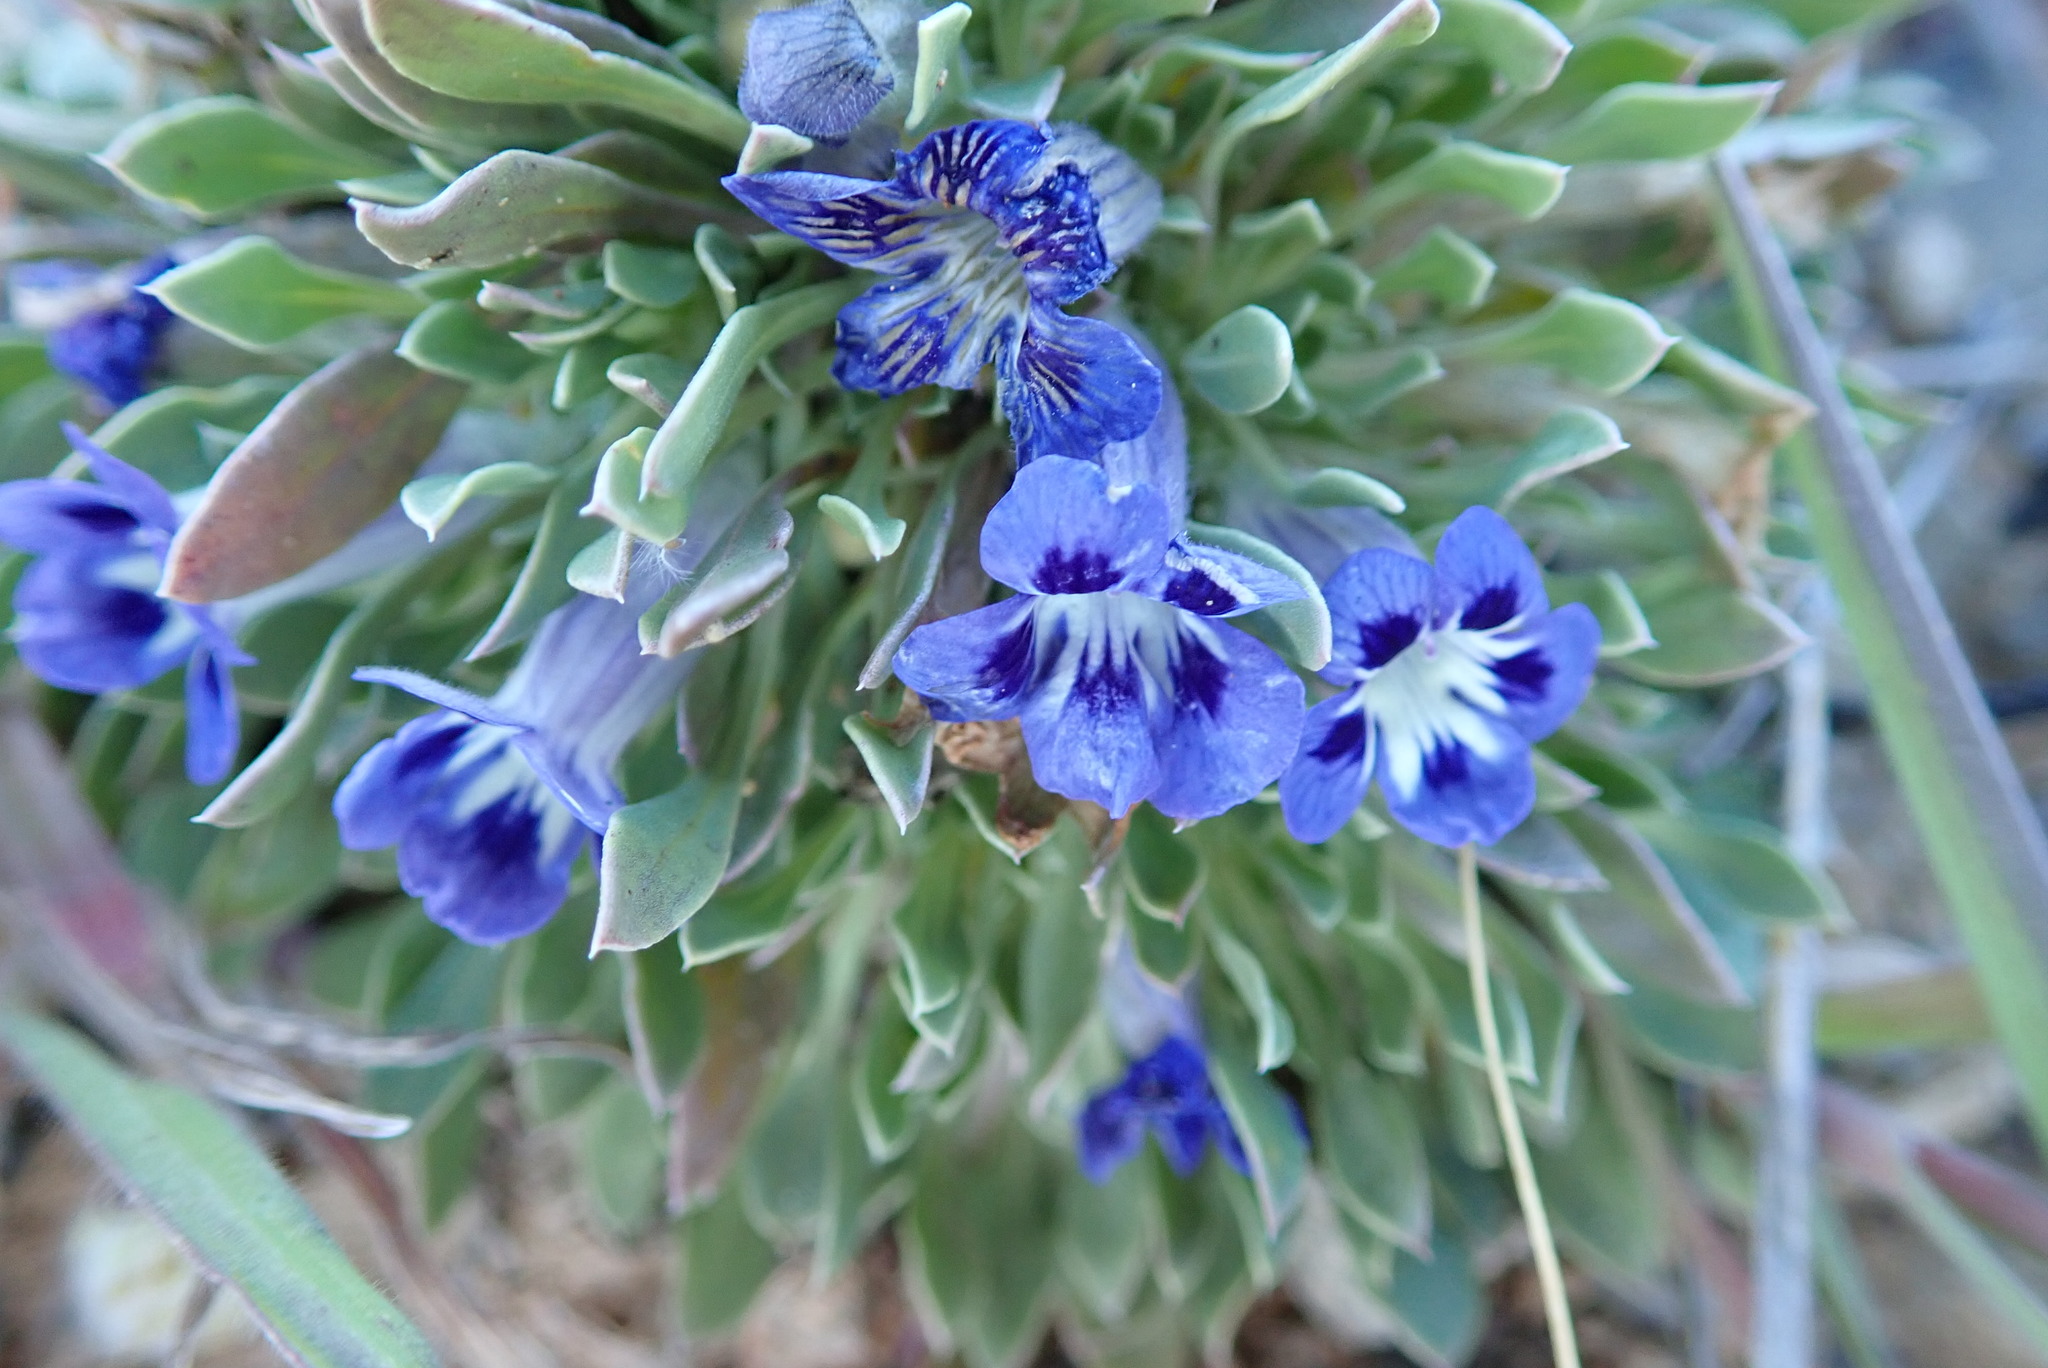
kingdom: Plantae
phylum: Tracheophyta
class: Magnoliopsida
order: Lamiales
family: Scrophulariaceae
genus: Aptosimum
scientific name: Aptosimum indivisum
